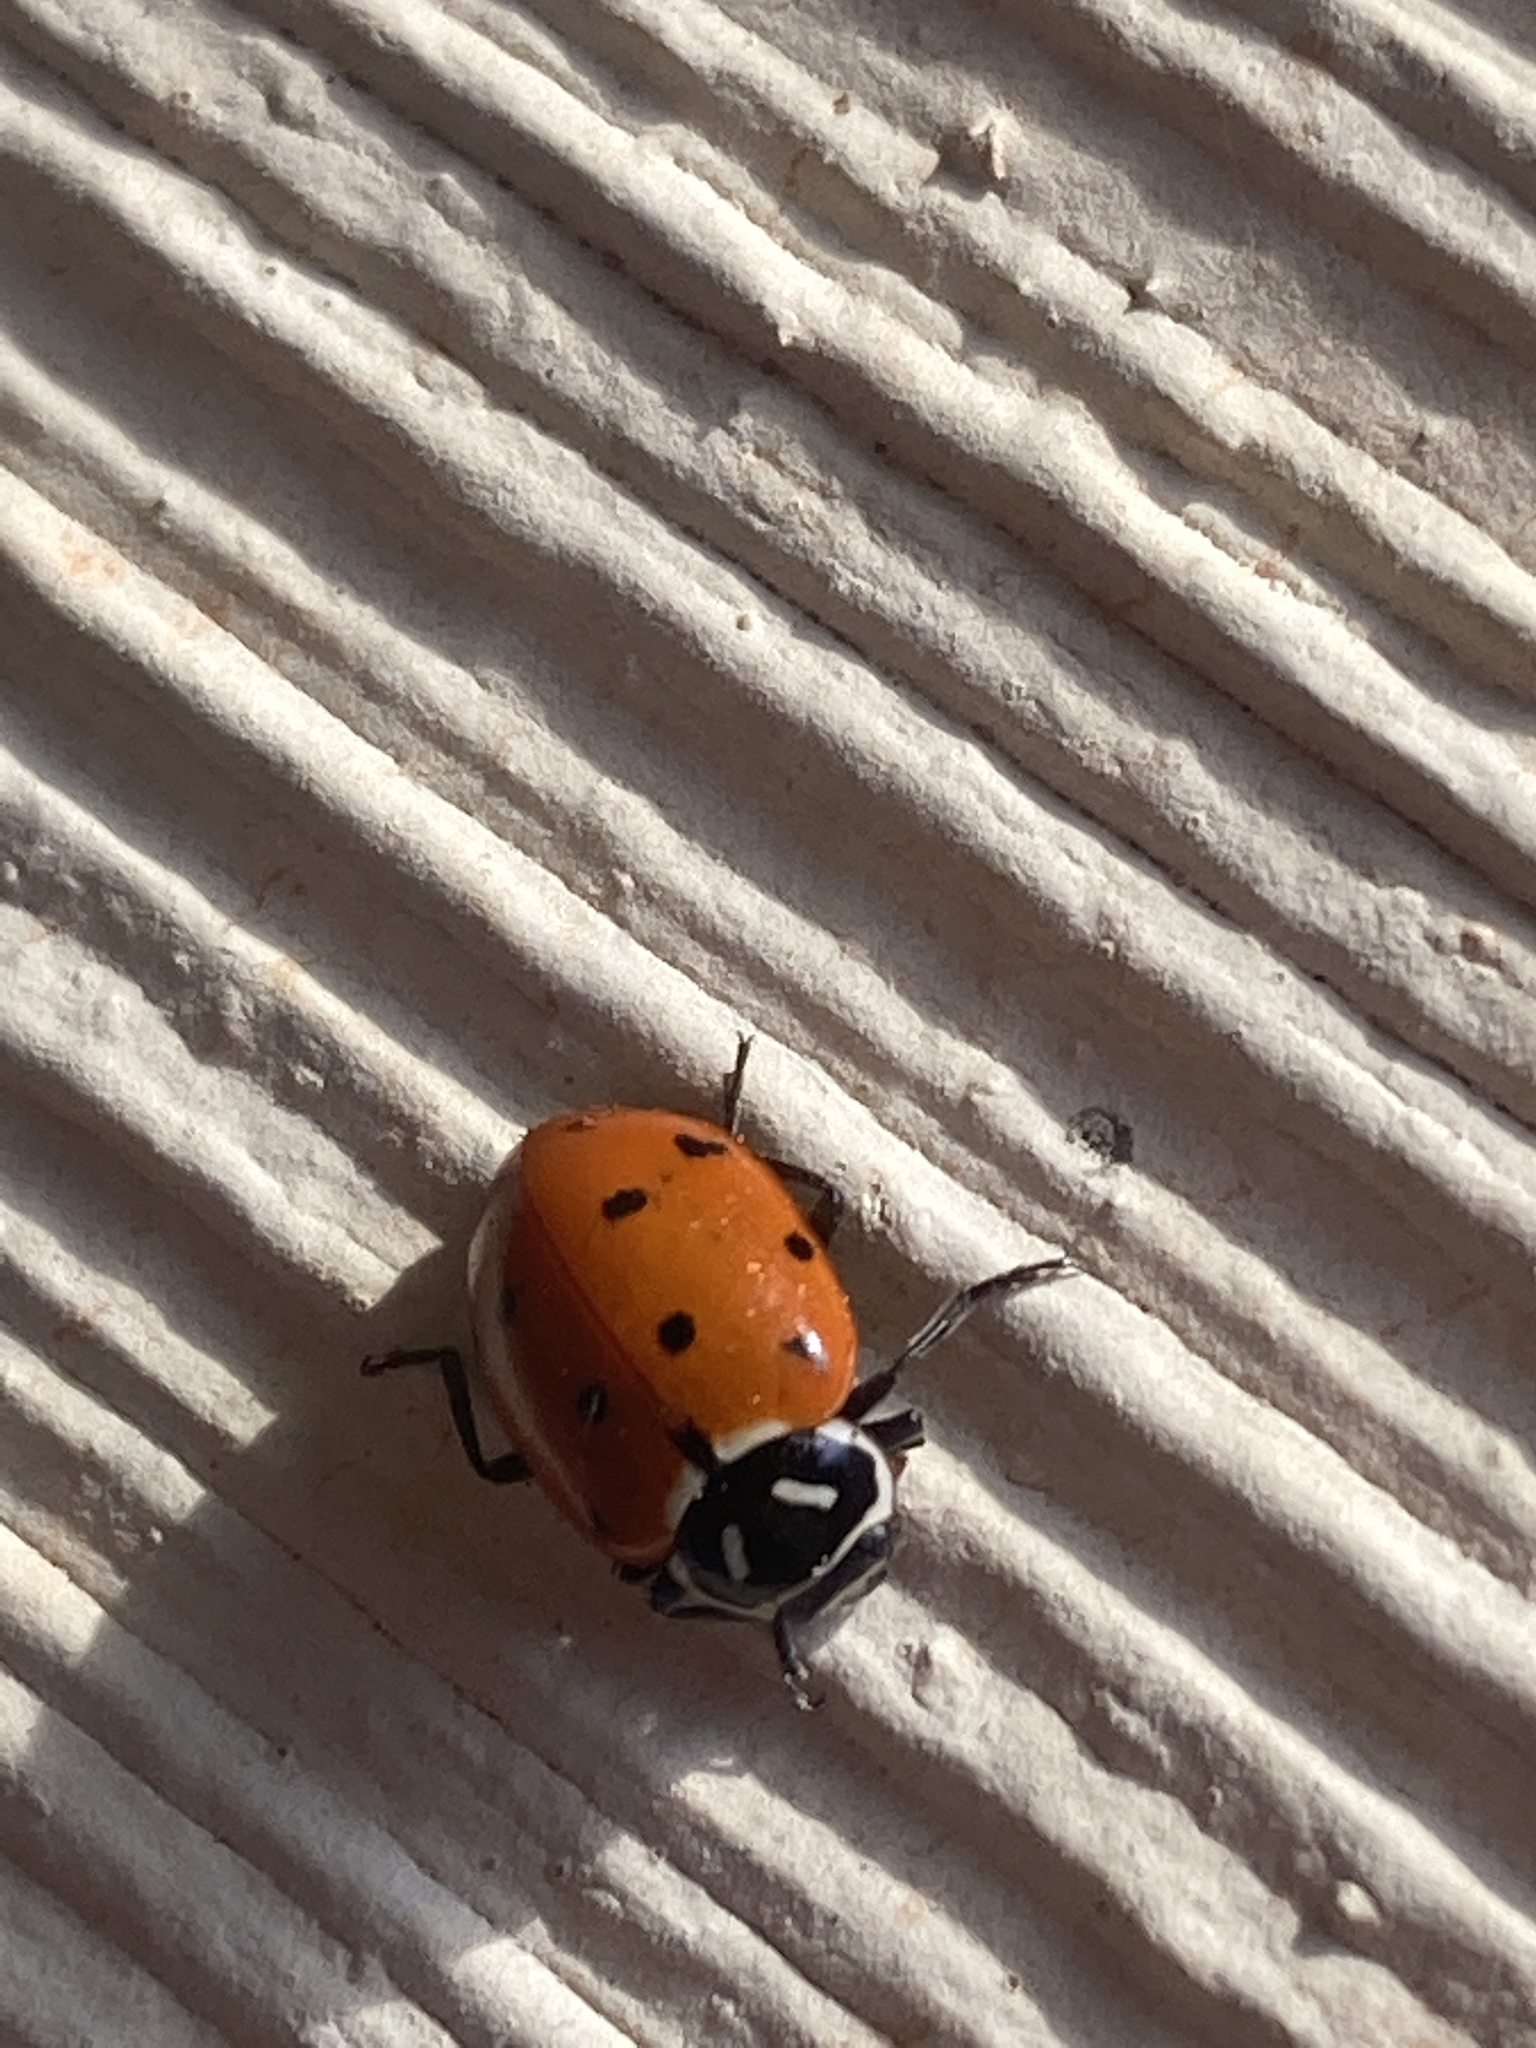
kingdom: Animalia
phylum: Arthropoda
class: Insecta
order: Coleoptera
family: Coccinellidae
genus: Hippodamia
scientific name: Hippodamia convergens
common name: Convergent lady beetle
